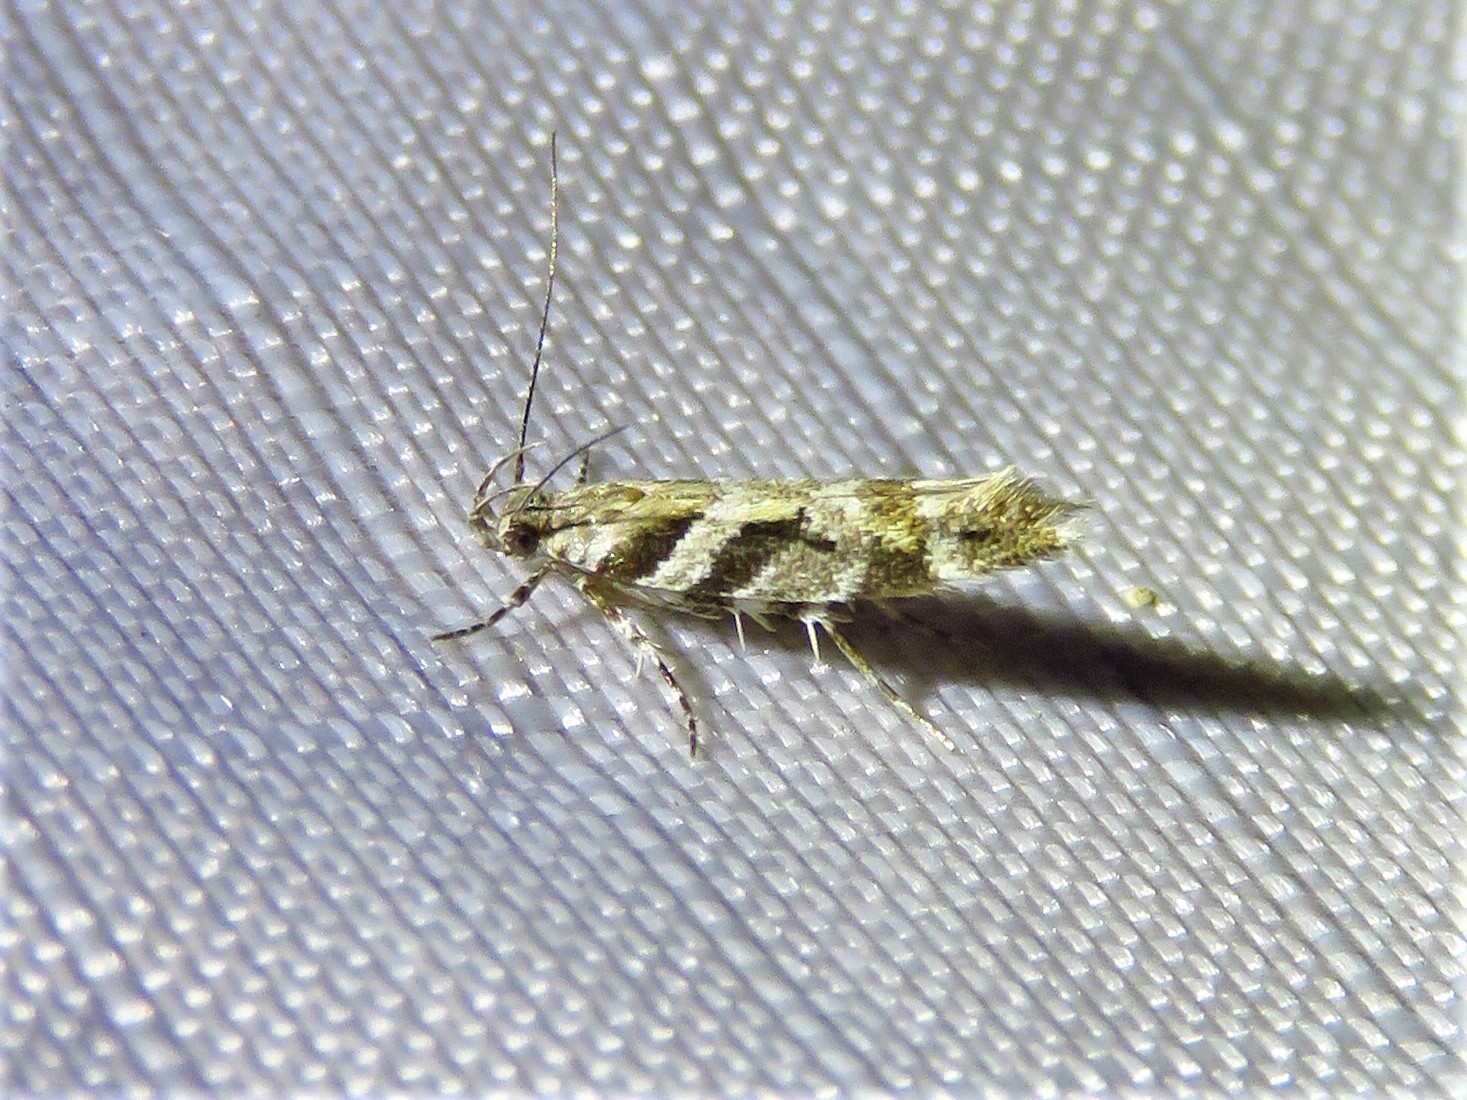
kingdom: Animalia
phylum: Arthropoda
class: Insecta
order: Lepidoptera
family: Gelechiidae
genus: Aristotelia
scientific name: Aristotelia roseosuffusella
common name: Pink-washed aristotelia moth
